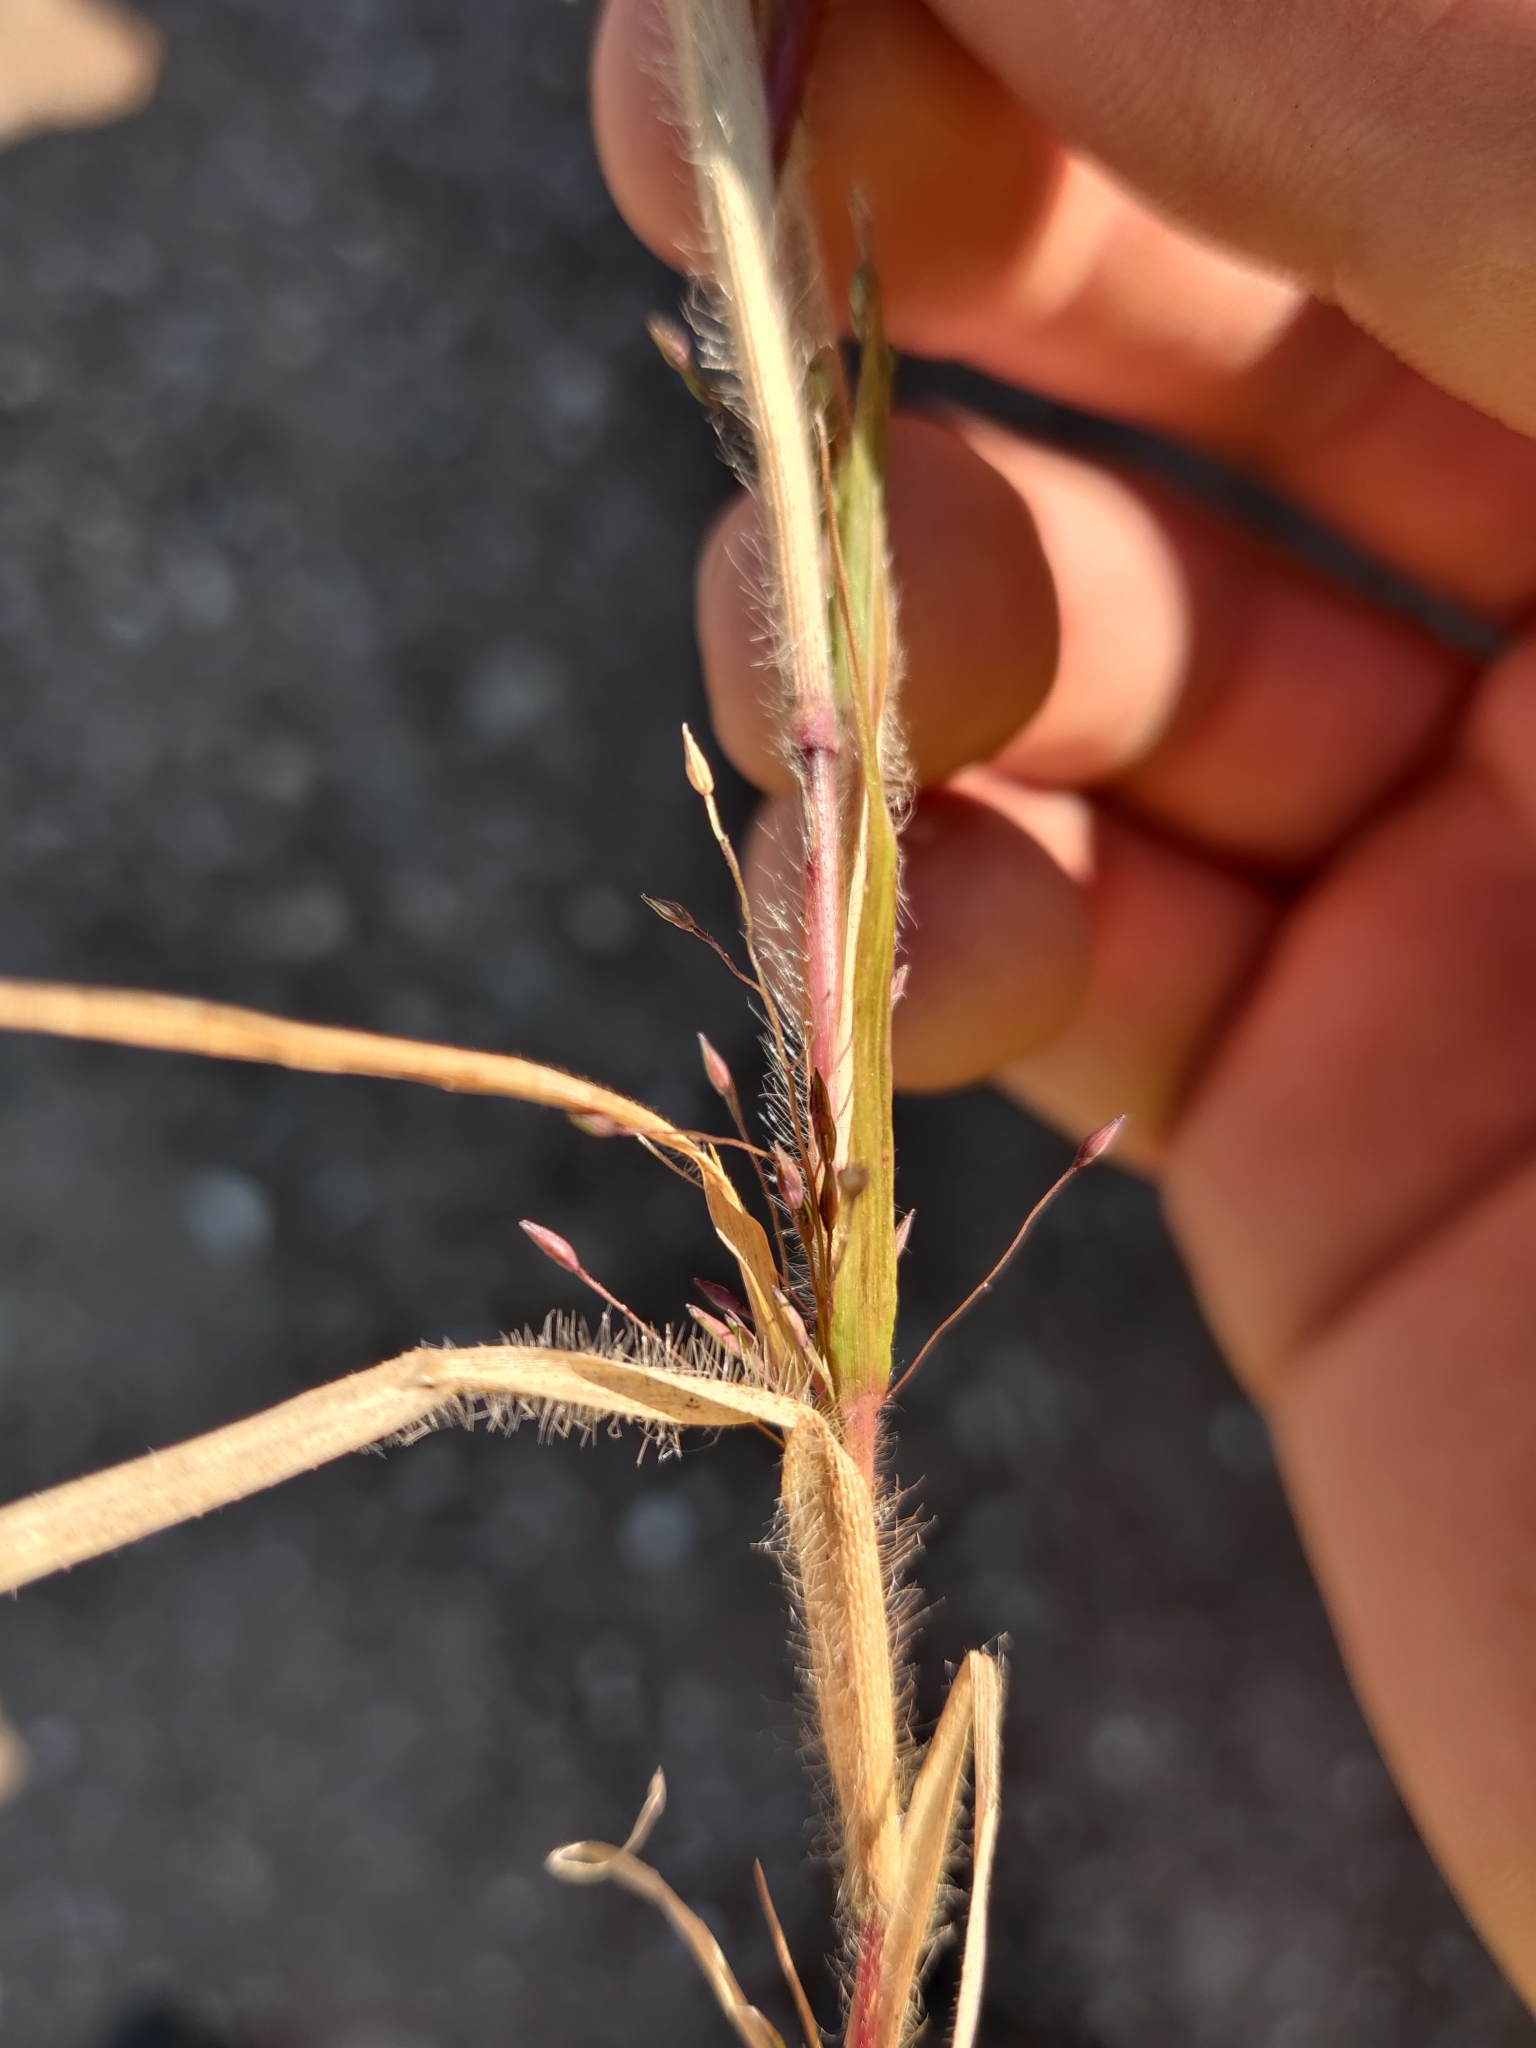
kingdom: Plantae
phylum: Tracheophyta
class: Liliopsida
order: Poales
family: Poaceae
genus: Panicum
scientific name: Panicum capillare
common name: Witch-grass
